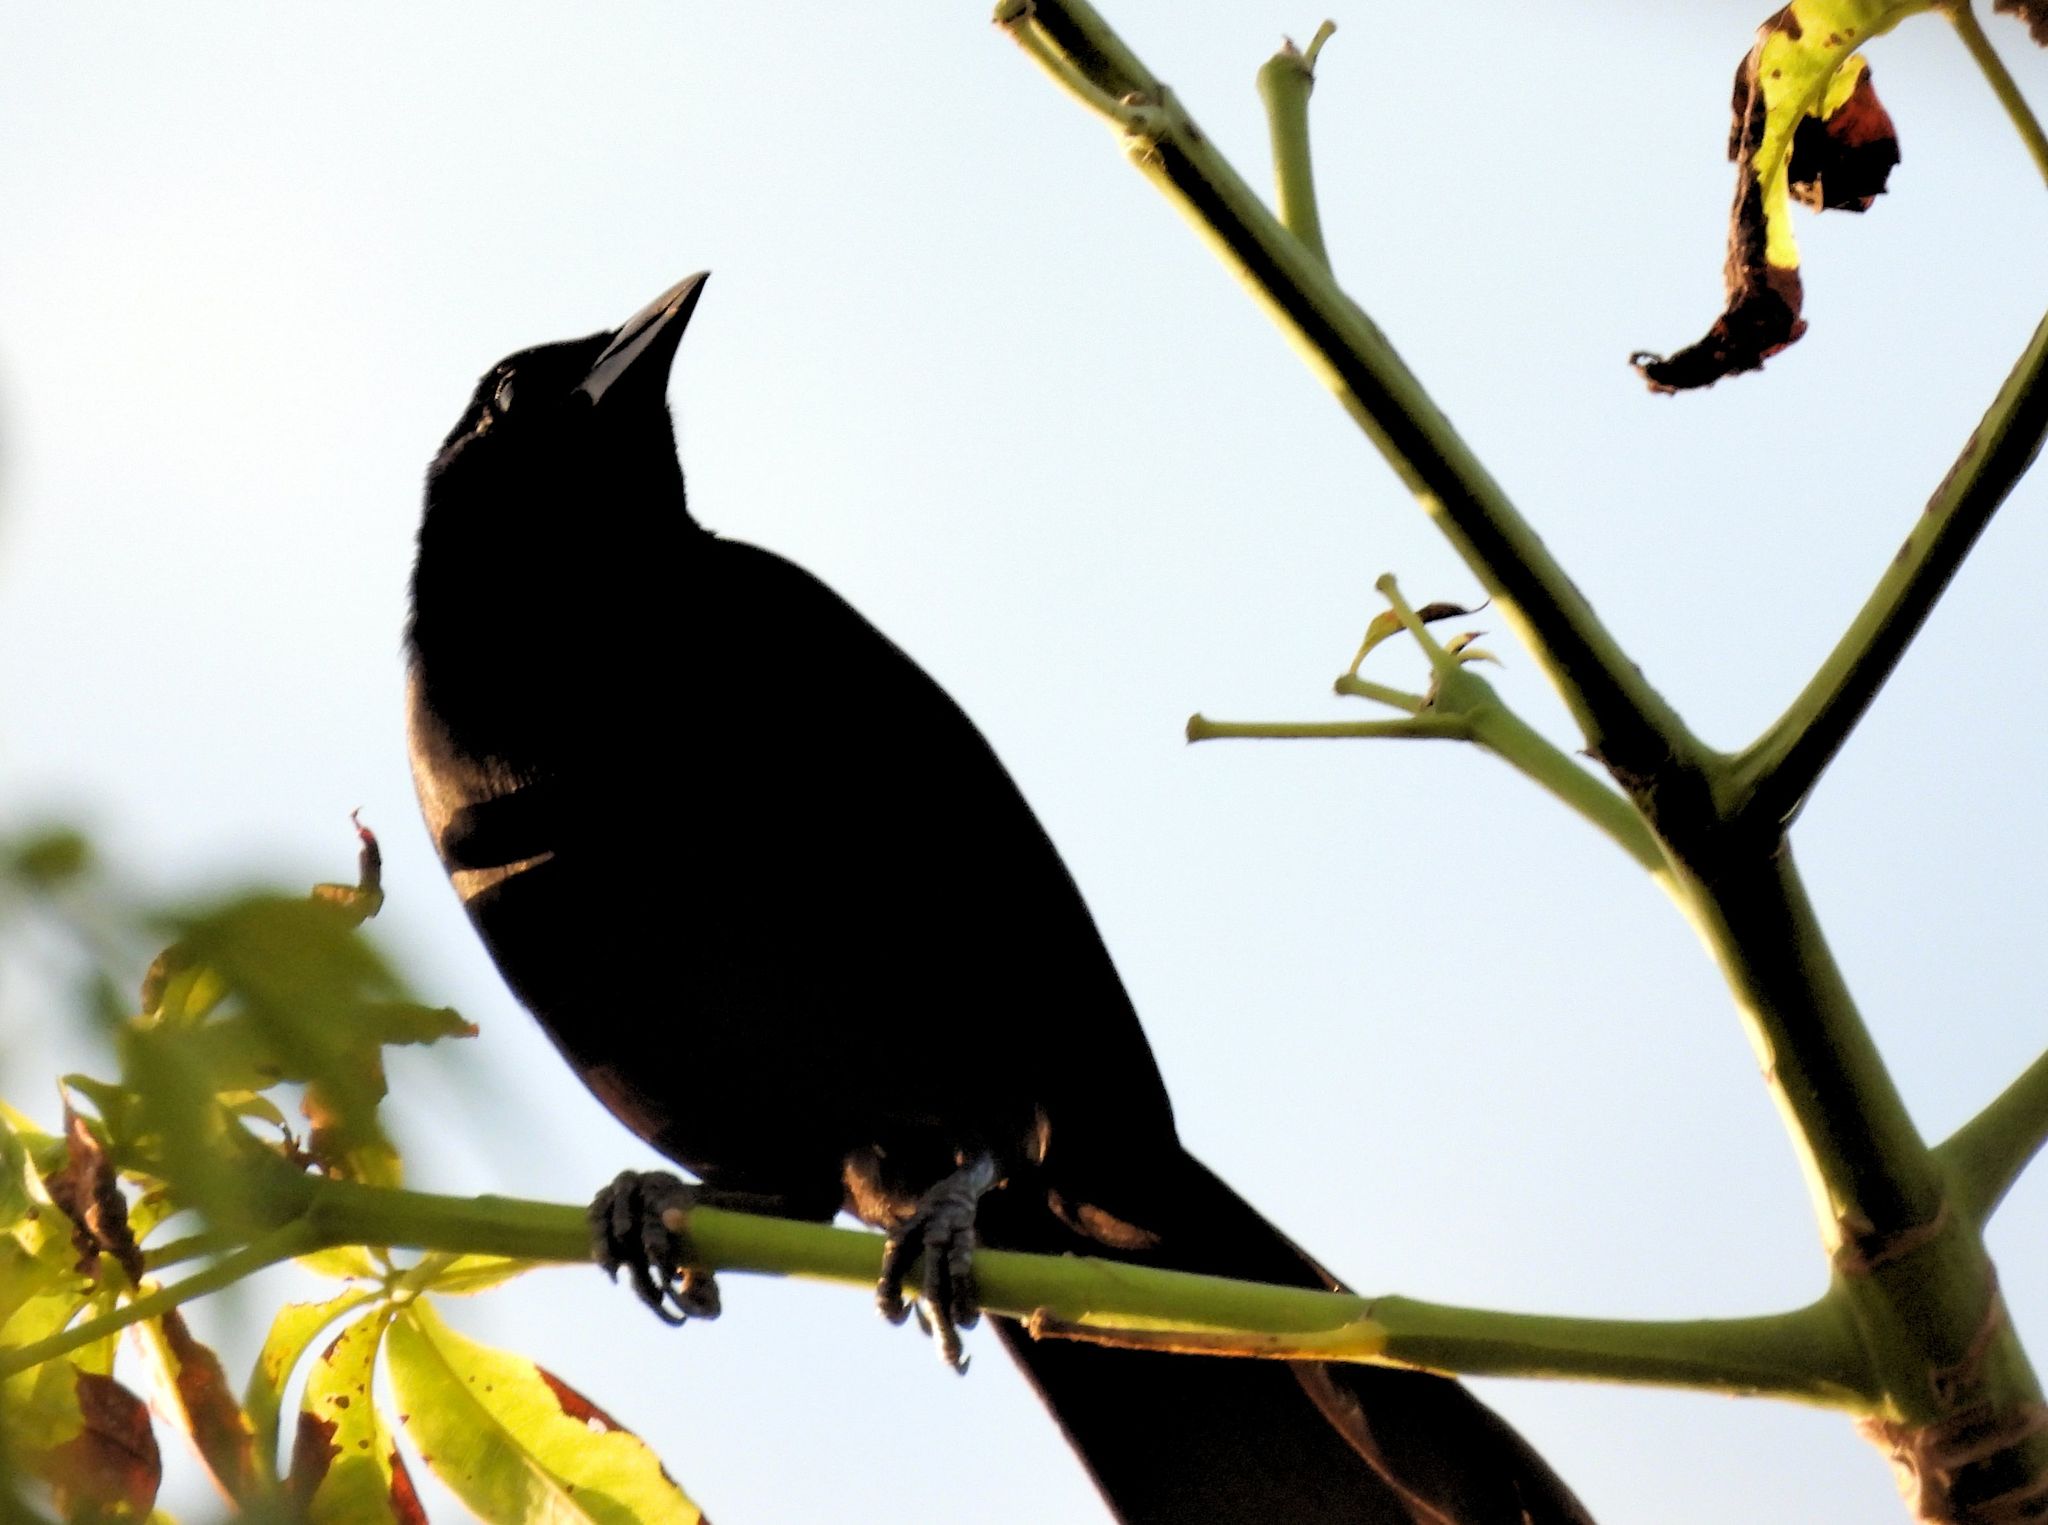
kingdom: Animalia
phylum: Chordata
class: Aves
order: Passeriformes
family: Icteridae
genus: Dives
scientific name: Dives dives
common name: Melodious blackbird
